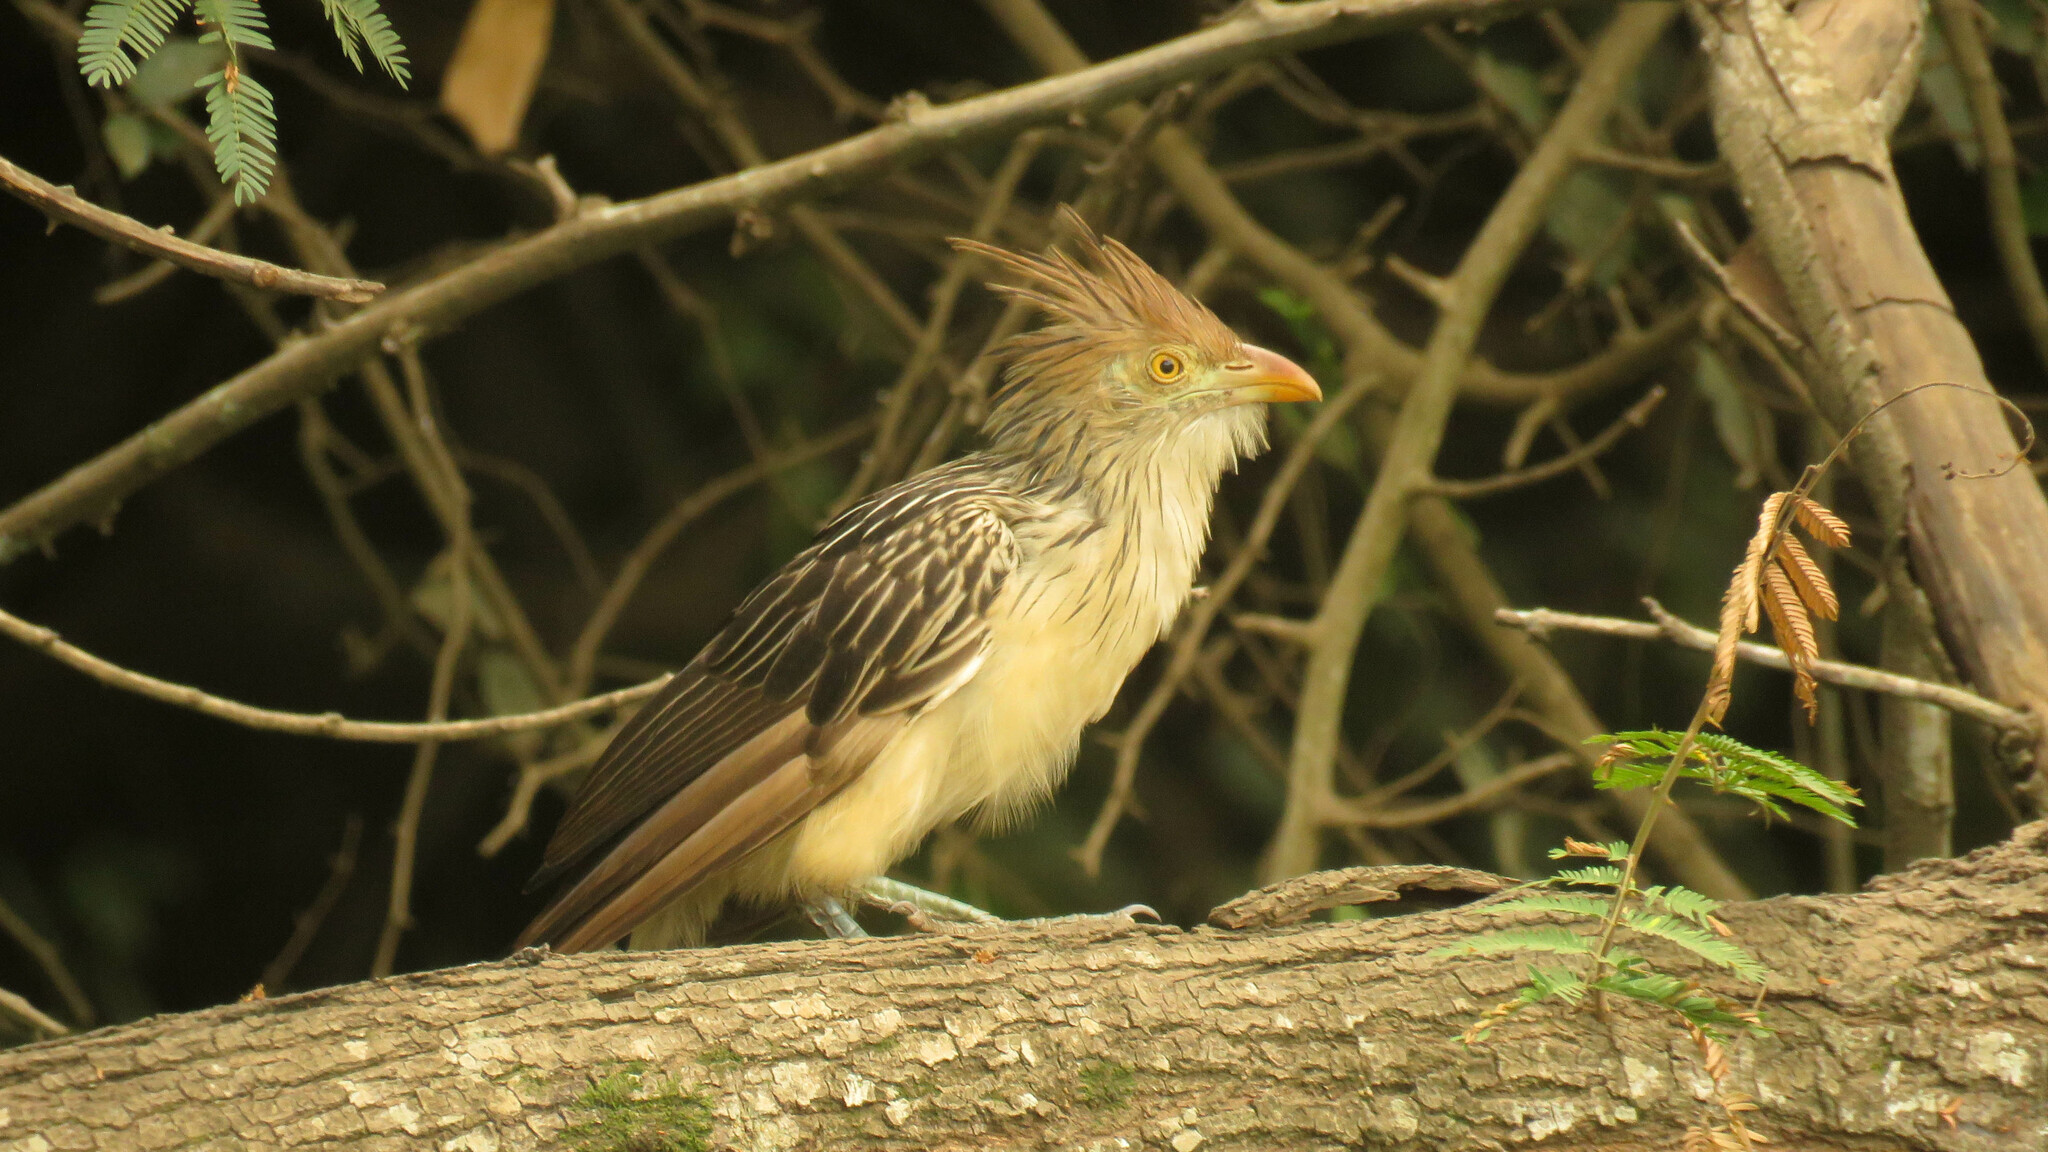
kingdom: Animalia
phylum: Chordata
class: Aves
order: Cuculiformes
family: Cuculidae
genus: Guira
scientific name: Guira guira
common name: Guira cuckoo
